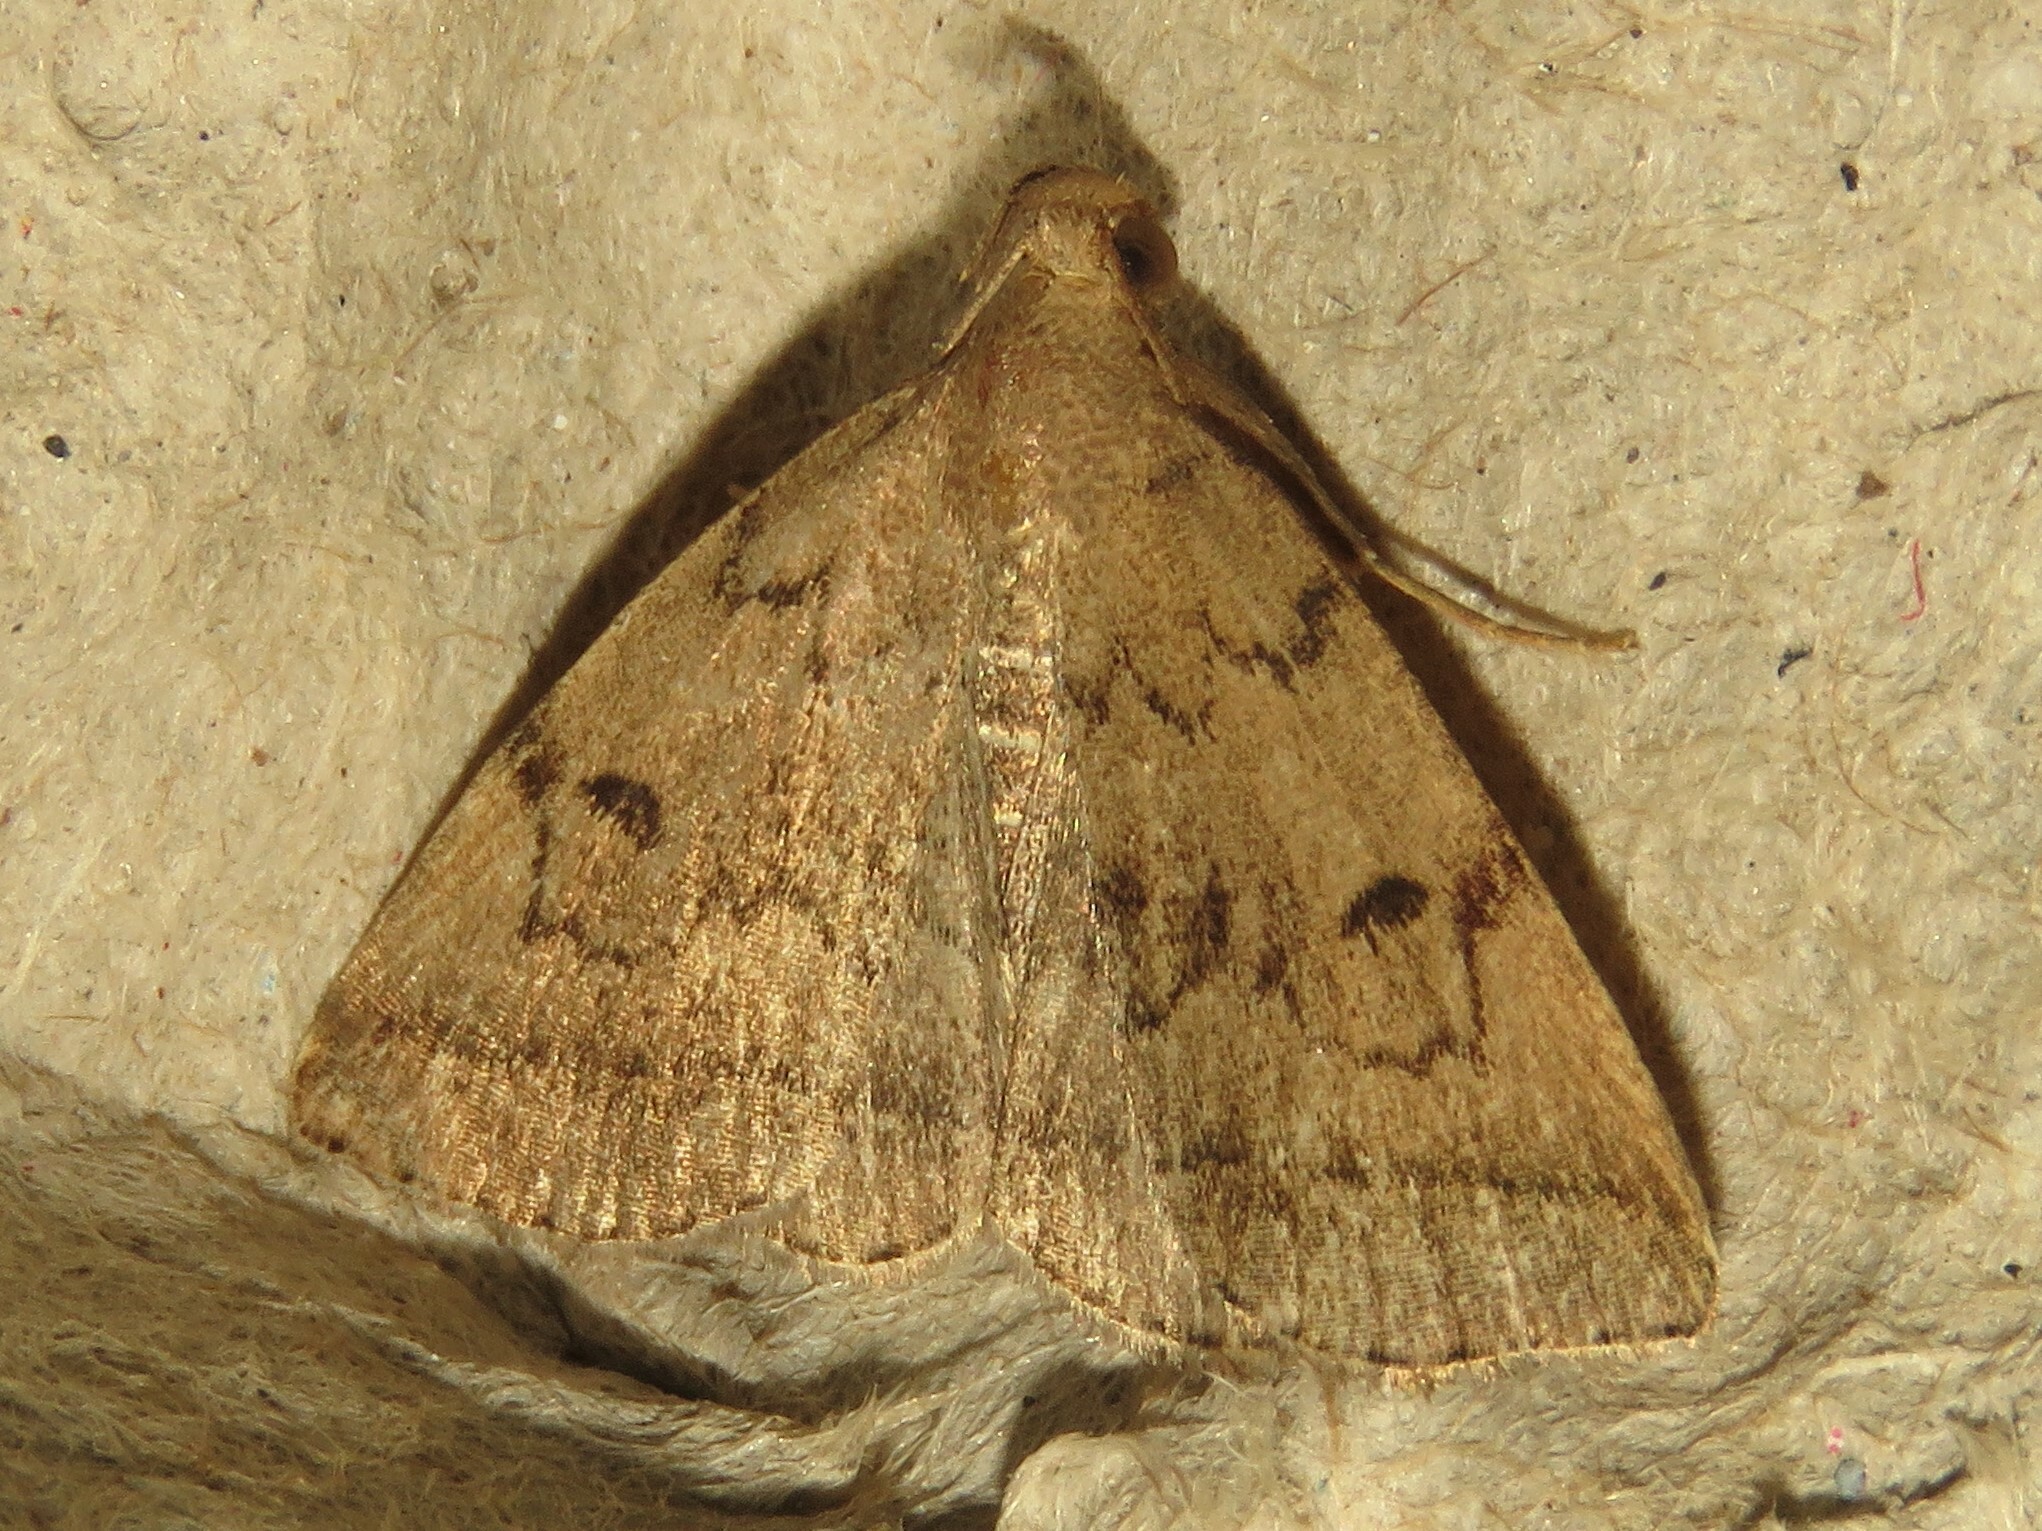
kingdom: Animalia
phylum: Arthropoda
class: Insecta
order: Lepidoptera
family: Erebidae
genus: Zanclognatha
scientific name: Zanclognatha dentata
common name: Toothed fan-foot
